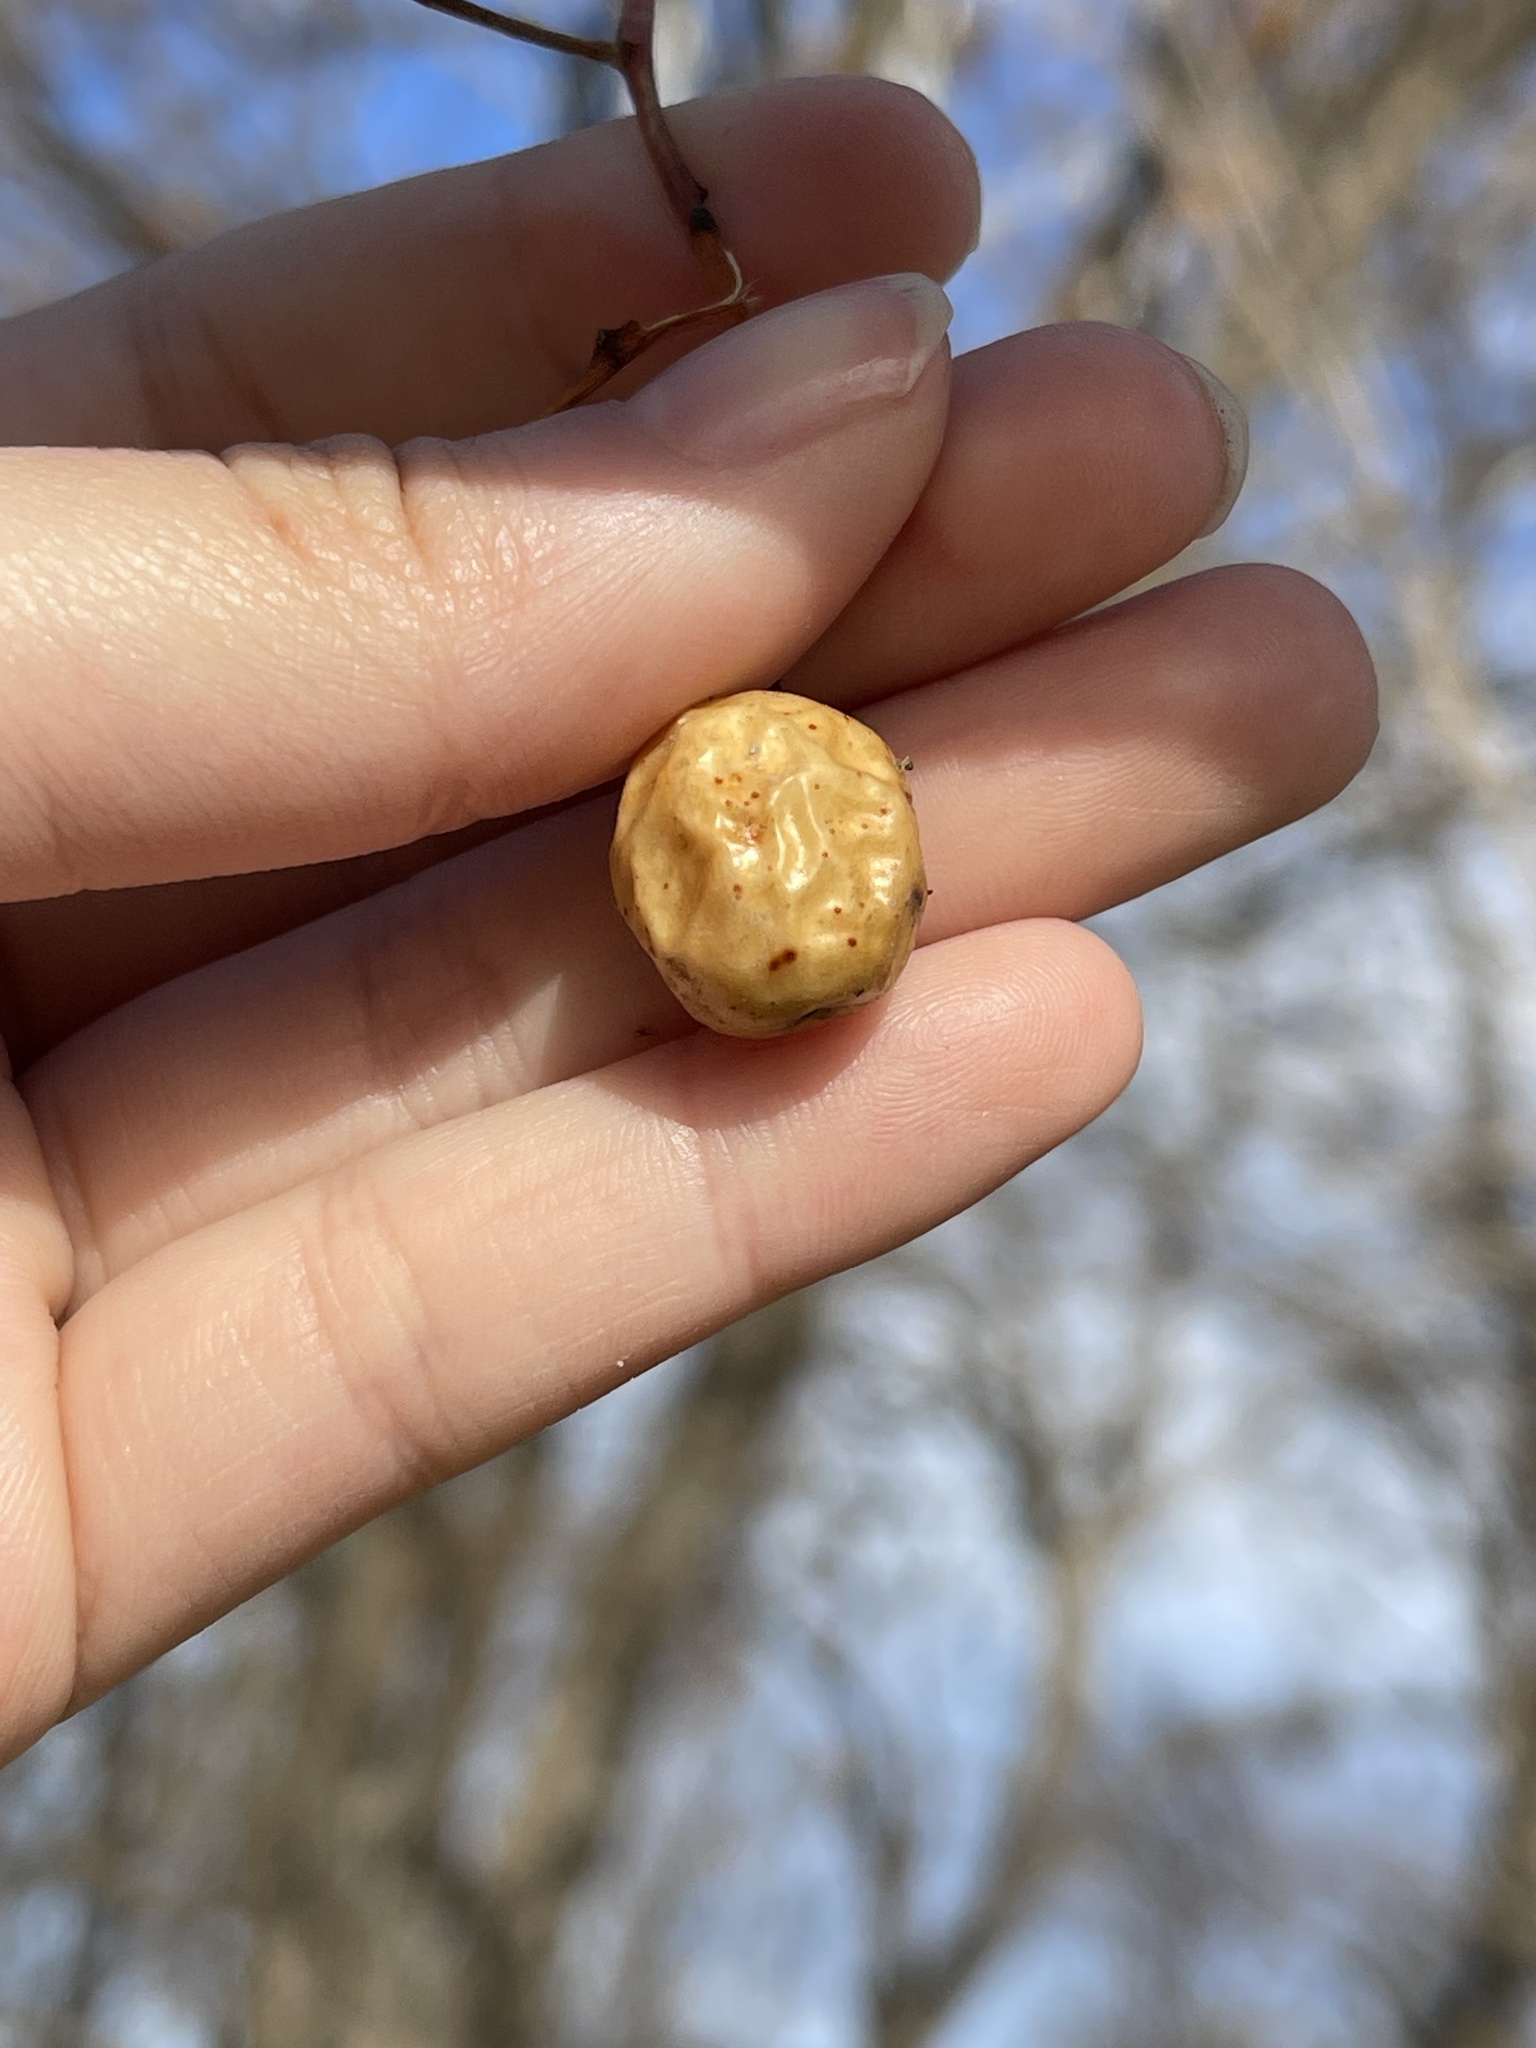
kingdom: Plantae
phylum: Tracheophyta
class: Magnoliopsida
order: Sapindales
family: Meliaceae
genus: Melia
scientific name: Melia azedarach
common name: Chinaberrytree
